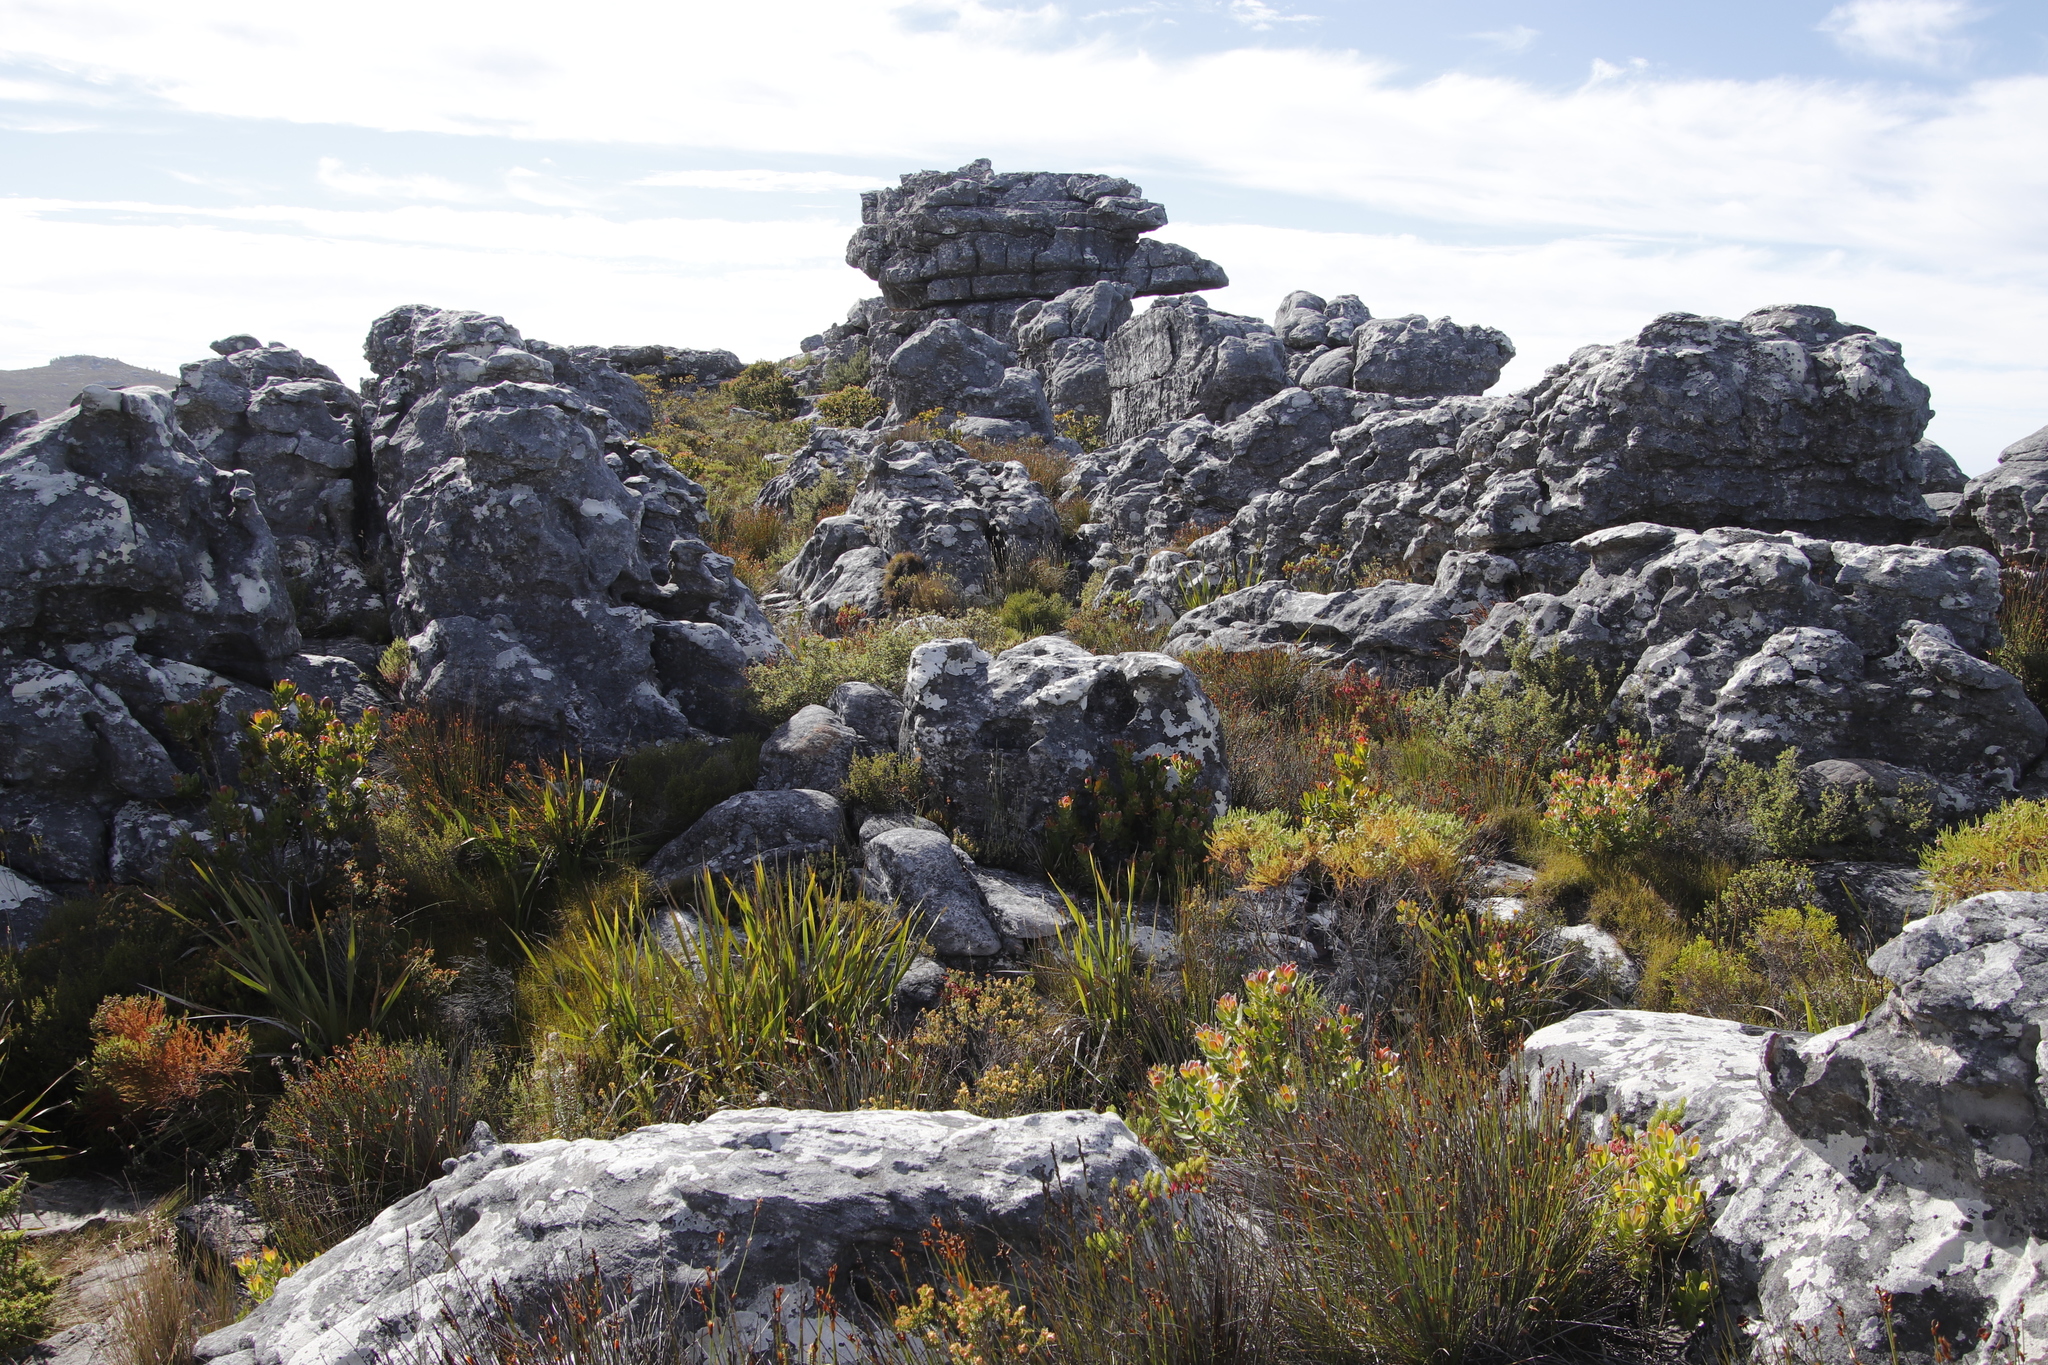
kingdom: Plantae
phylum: Tracheophyta
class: Magnoliopsida
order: Proteales
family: Proteaceae
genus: Leucadendron
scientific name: Leucadendron strobilinum
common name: Mountain rose
